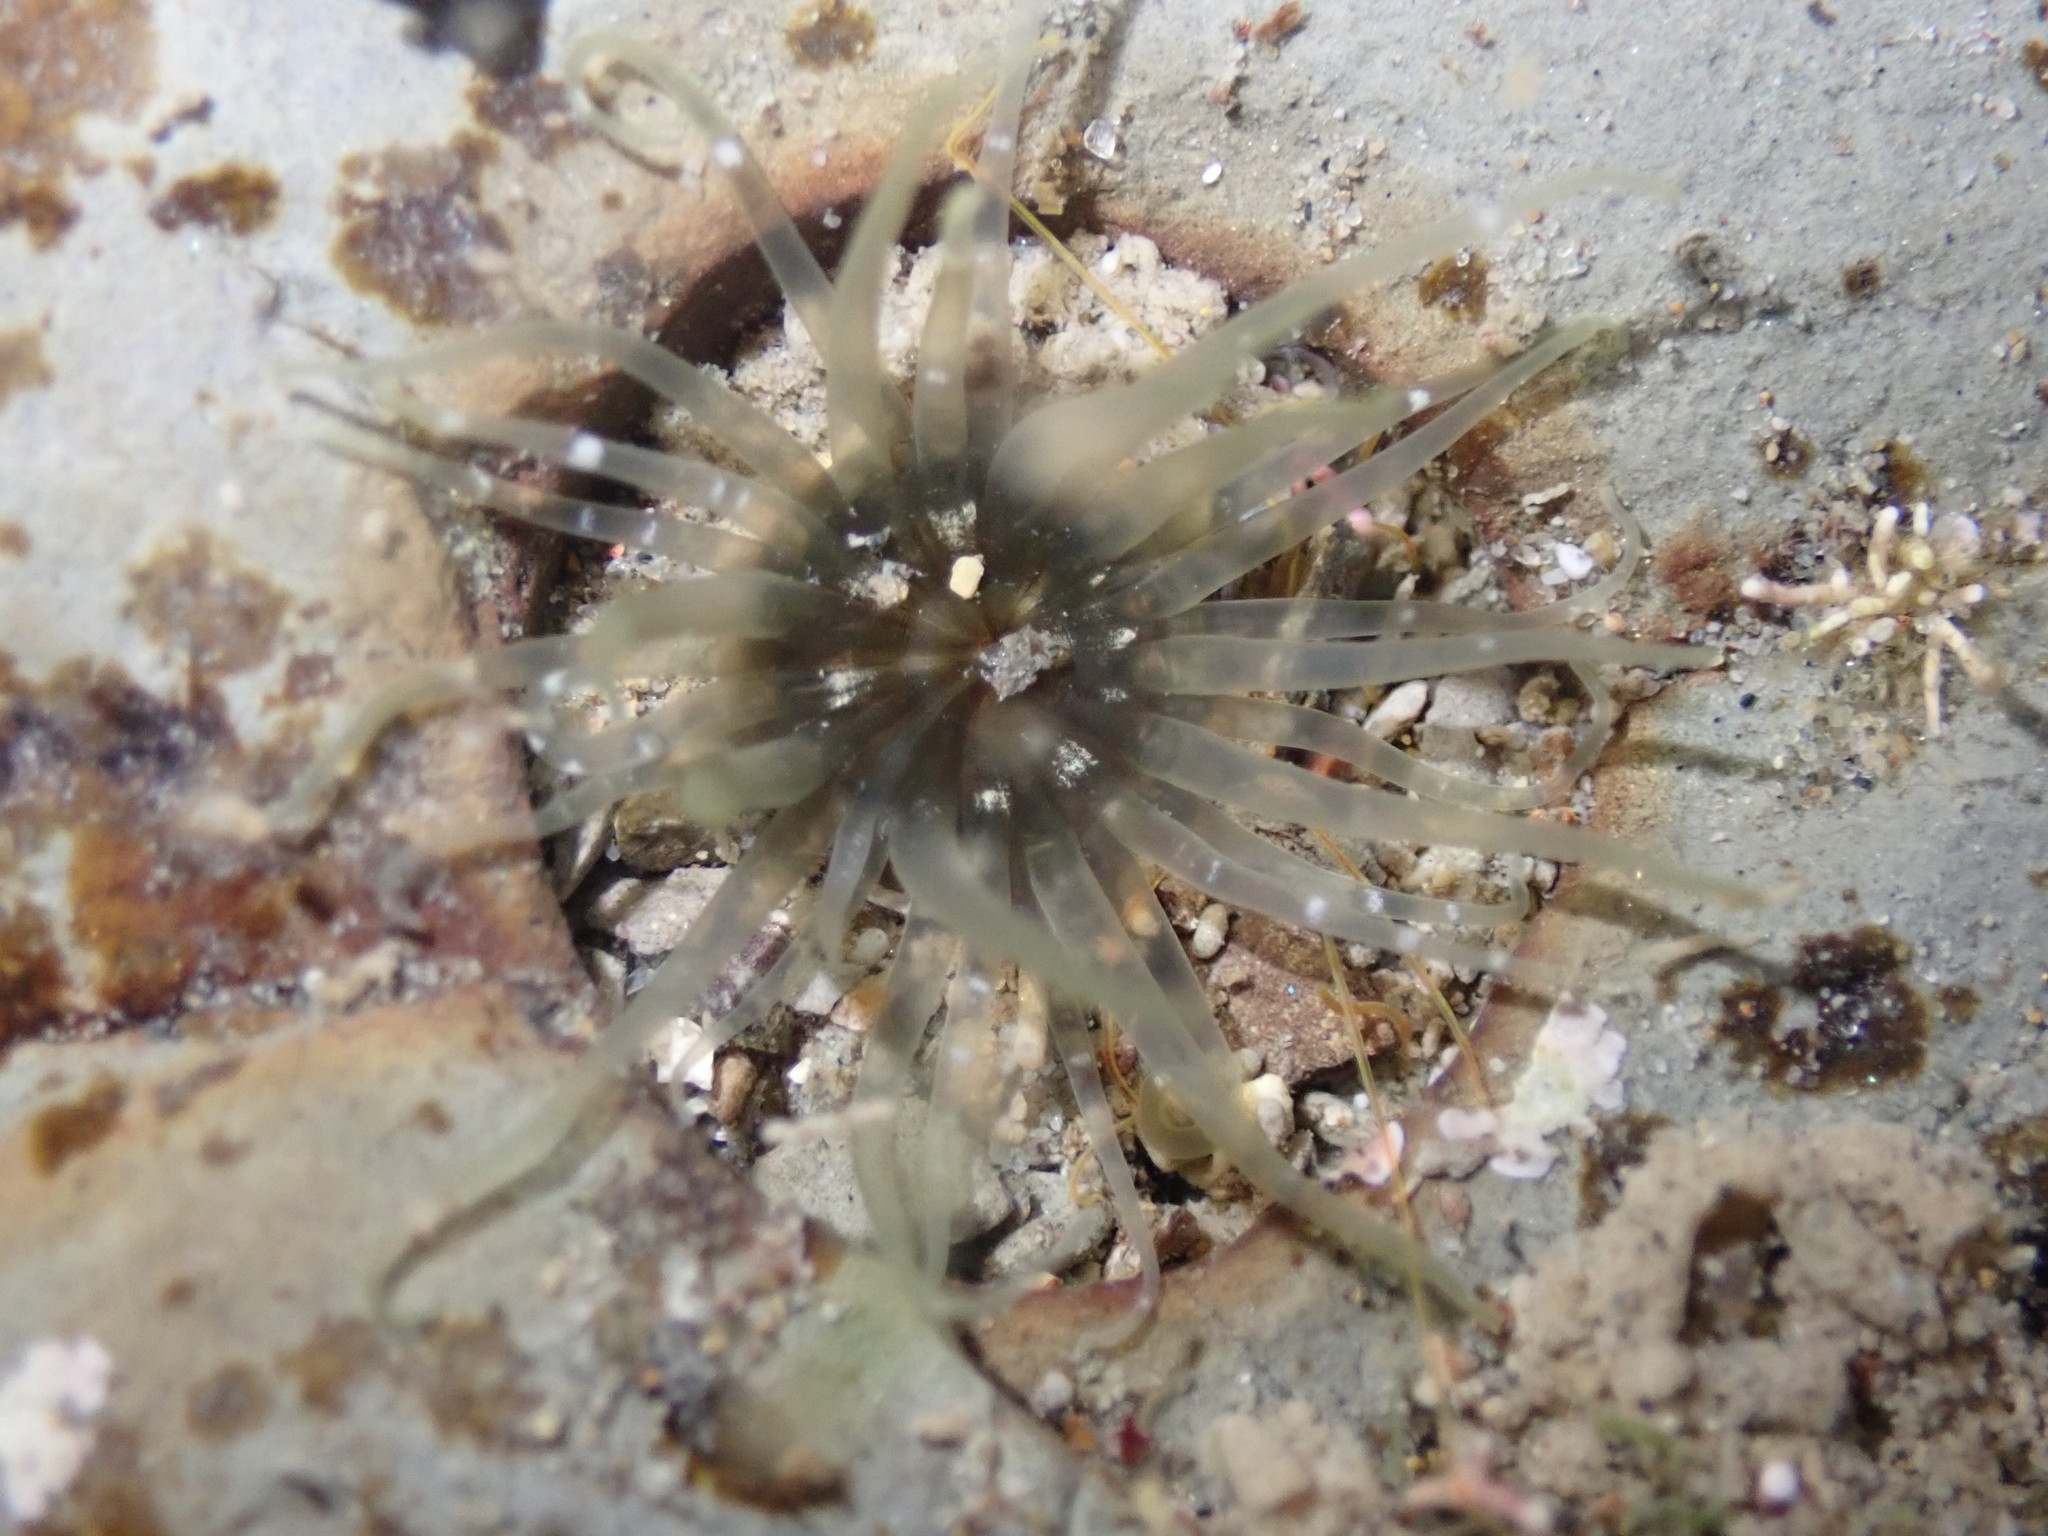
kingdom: Animalia
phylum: Cnidaria
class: Anthozoa
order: Actiniaria
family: Actiniidae
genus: Isactinia
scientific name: Isactinia olivacea
